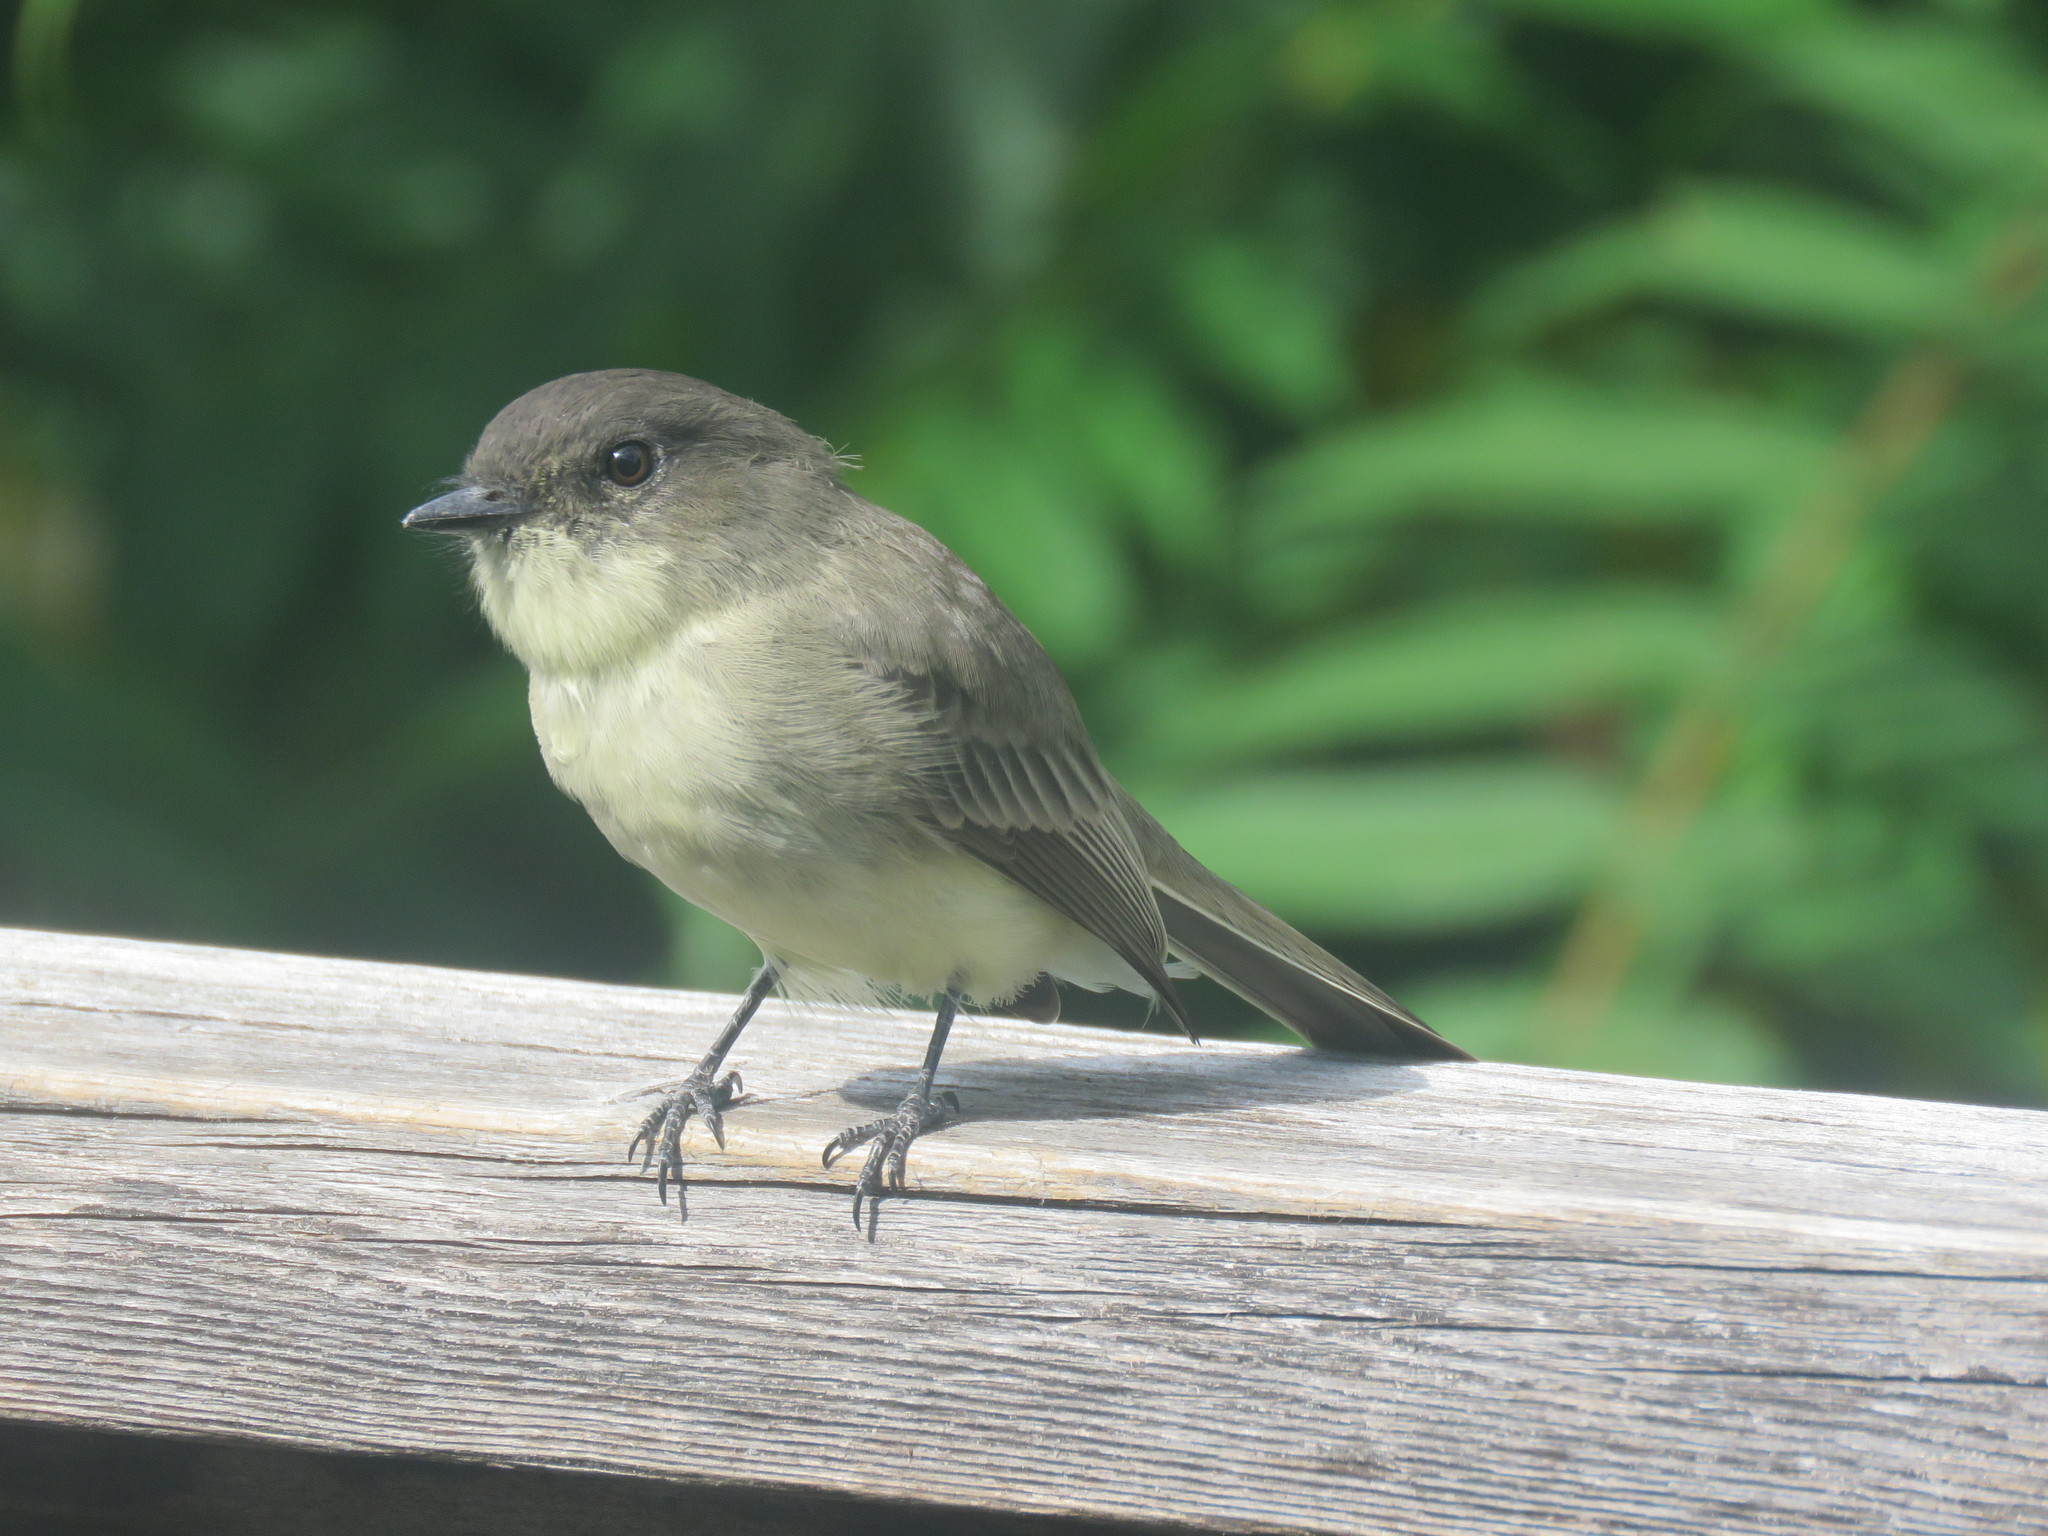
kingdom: Animalia
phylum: Chordata
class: Aves
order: Passeriformes
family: Tyrannidae
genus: Sayornis
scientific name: Sayornis phoebe
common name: Eastern phoebe
